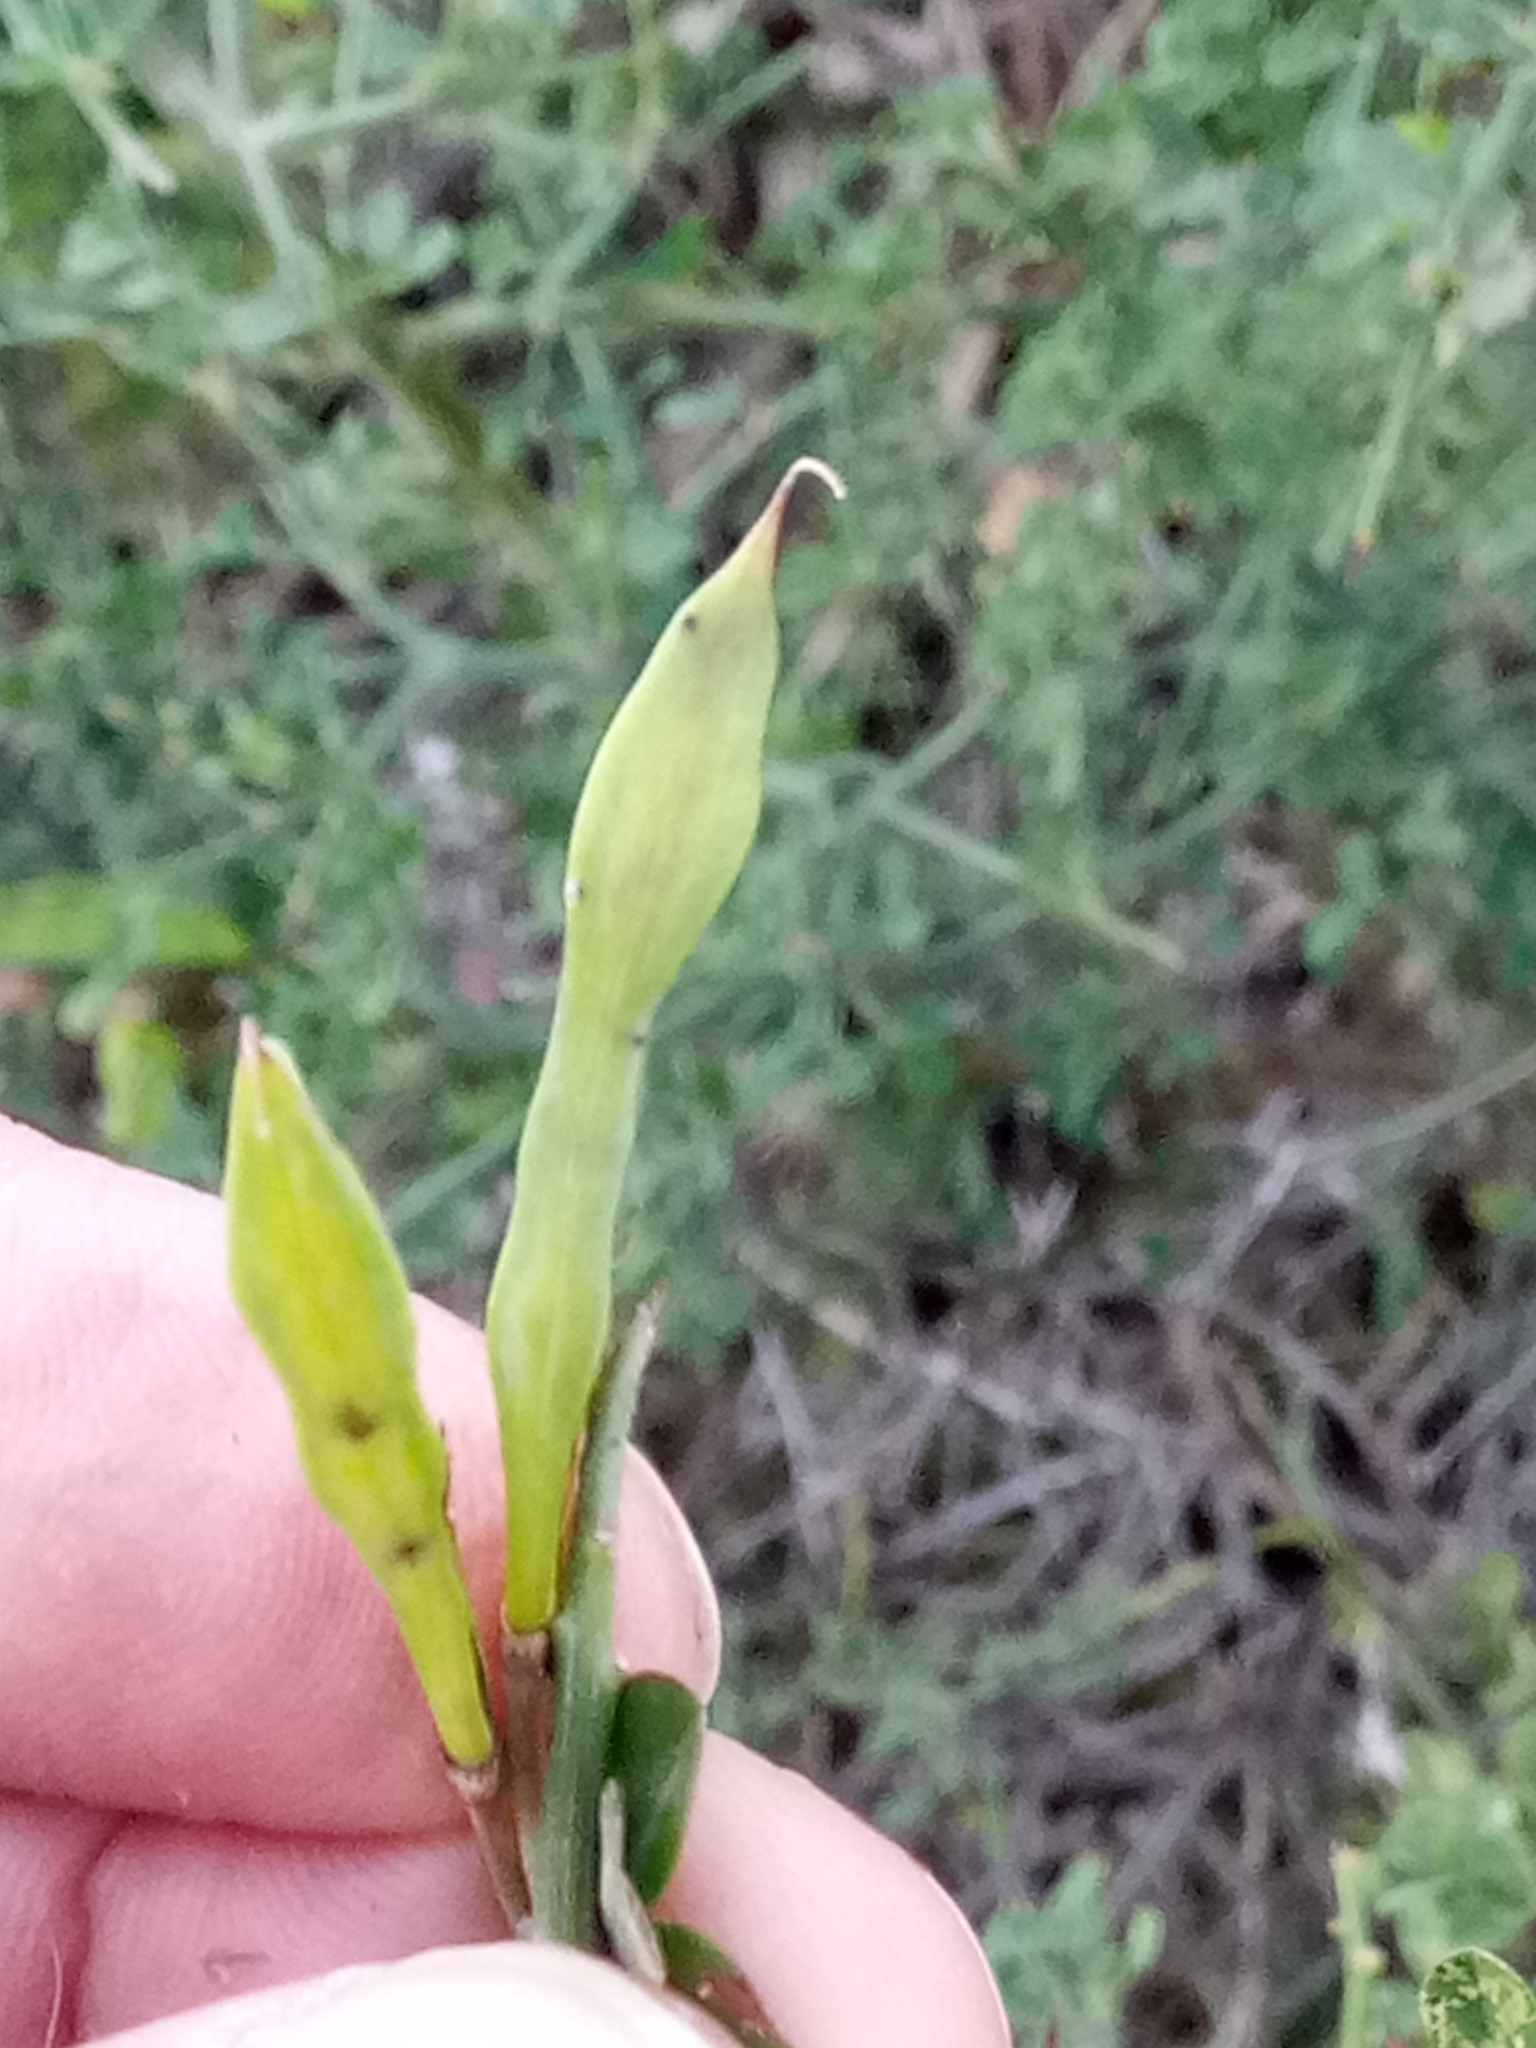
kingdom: Plantae
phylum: Tracheophyta
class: Magnoliopsida
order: Fabales
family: Fabaceae
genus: Calicotome
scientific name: Calicotome spinosa
